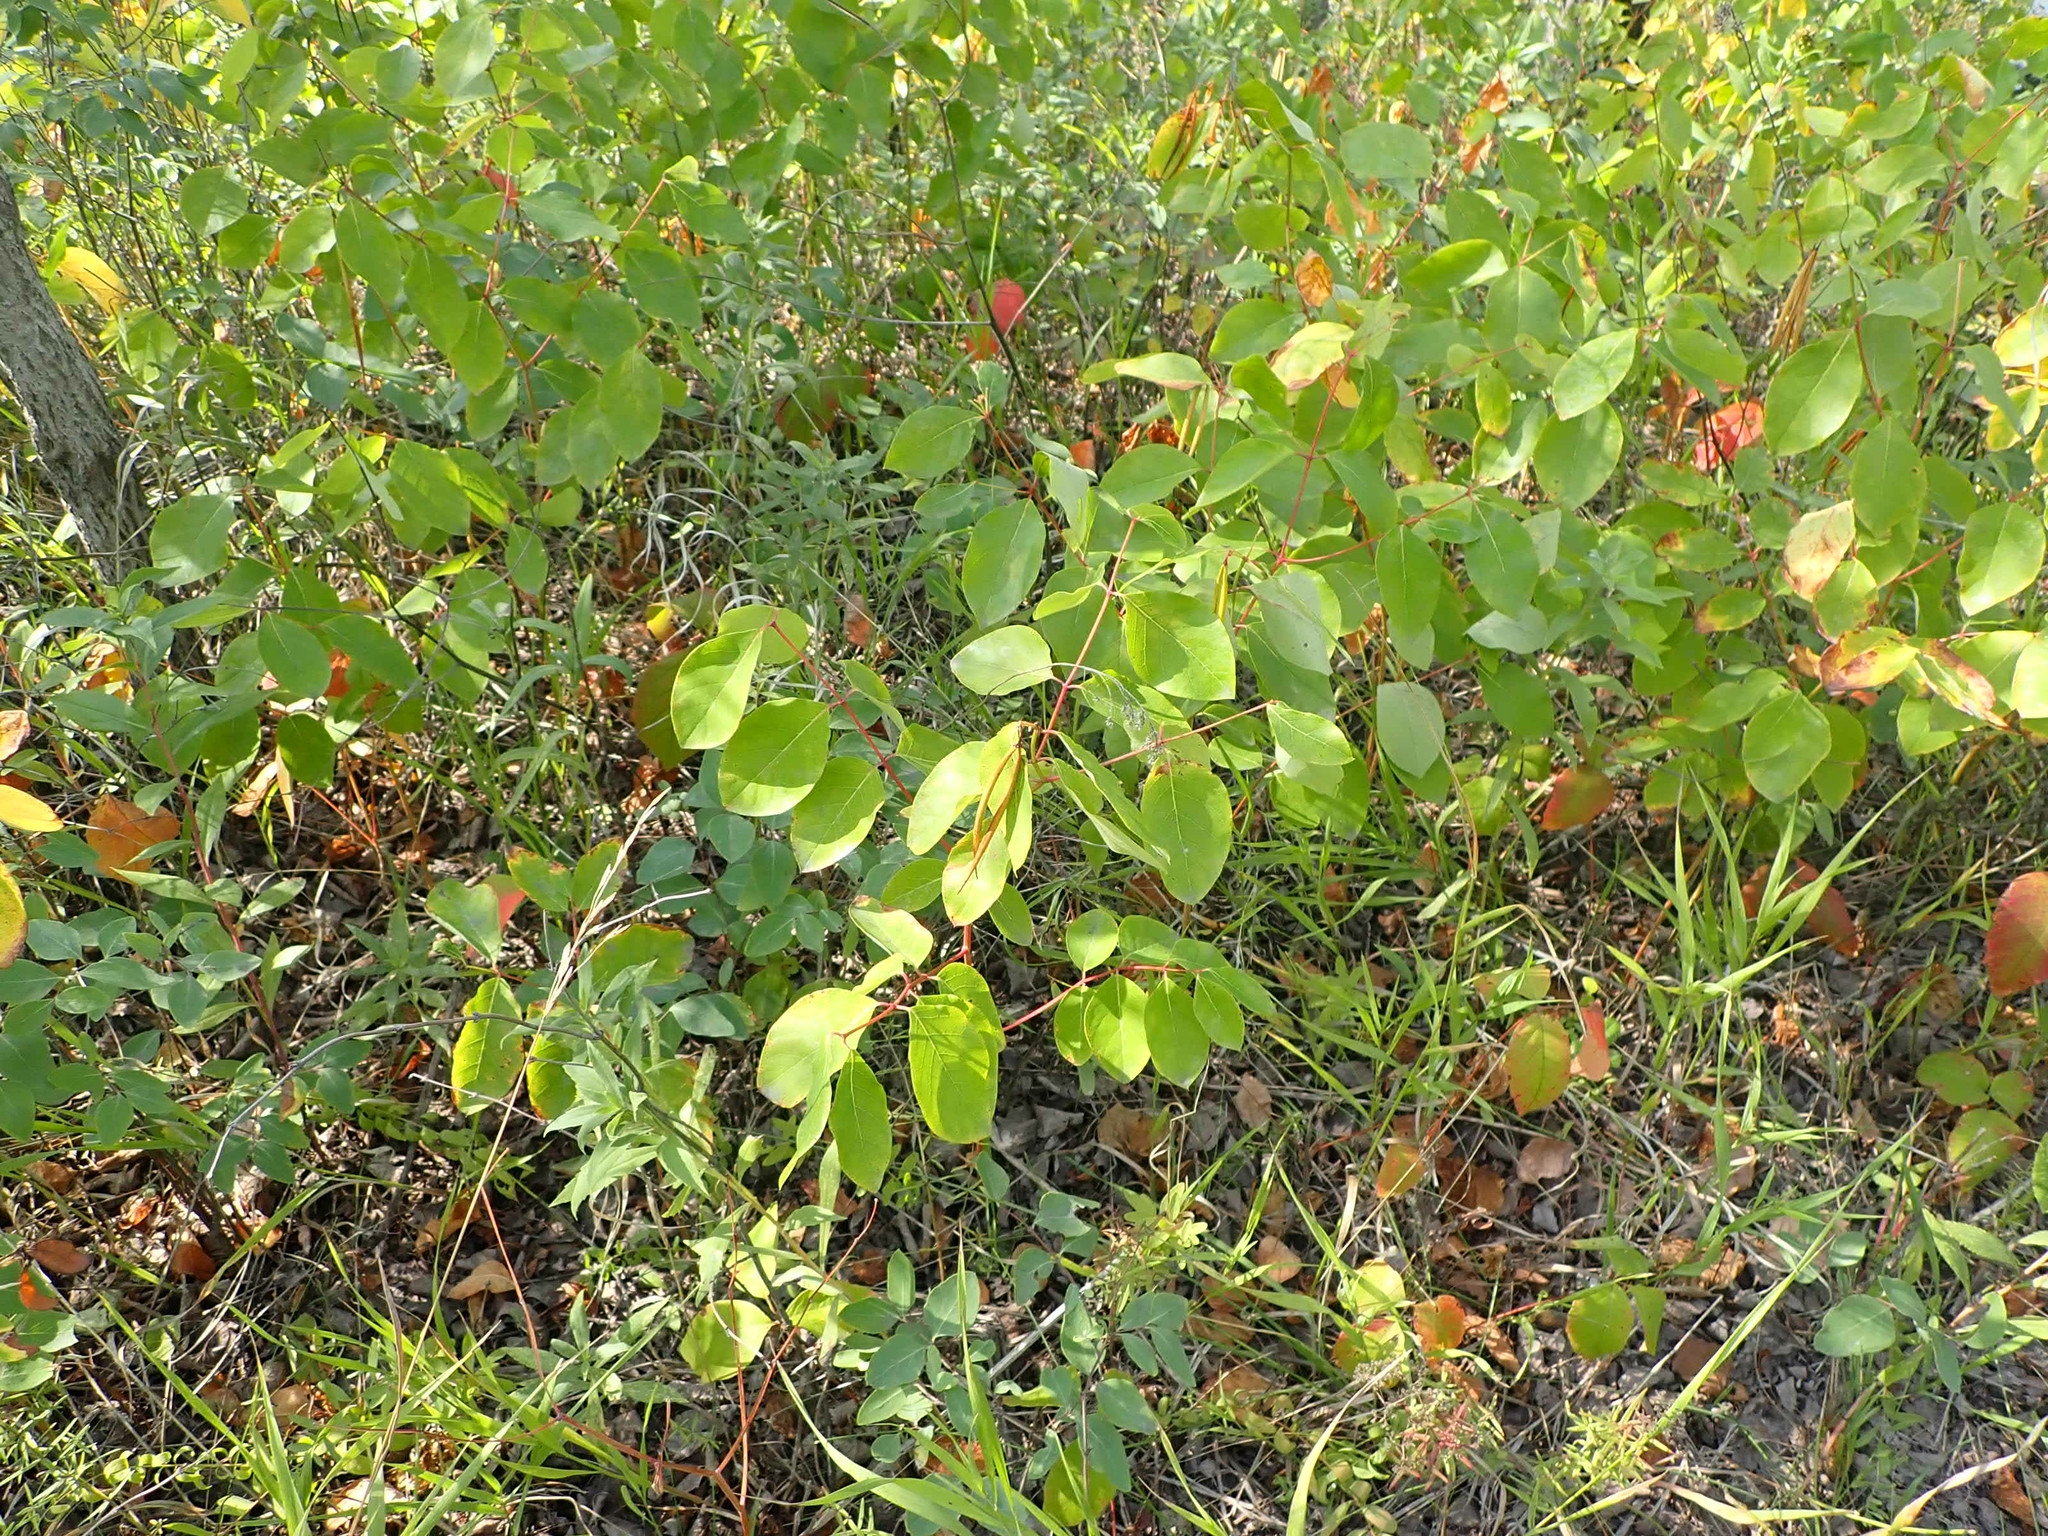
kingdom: Plantae
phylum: Tracheophyta
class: Magnoliopsida
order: Gentianales
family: Apocynaceae
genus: Apocynum
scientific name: Apocynum androsaemifolium
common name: Spreading dogbane
